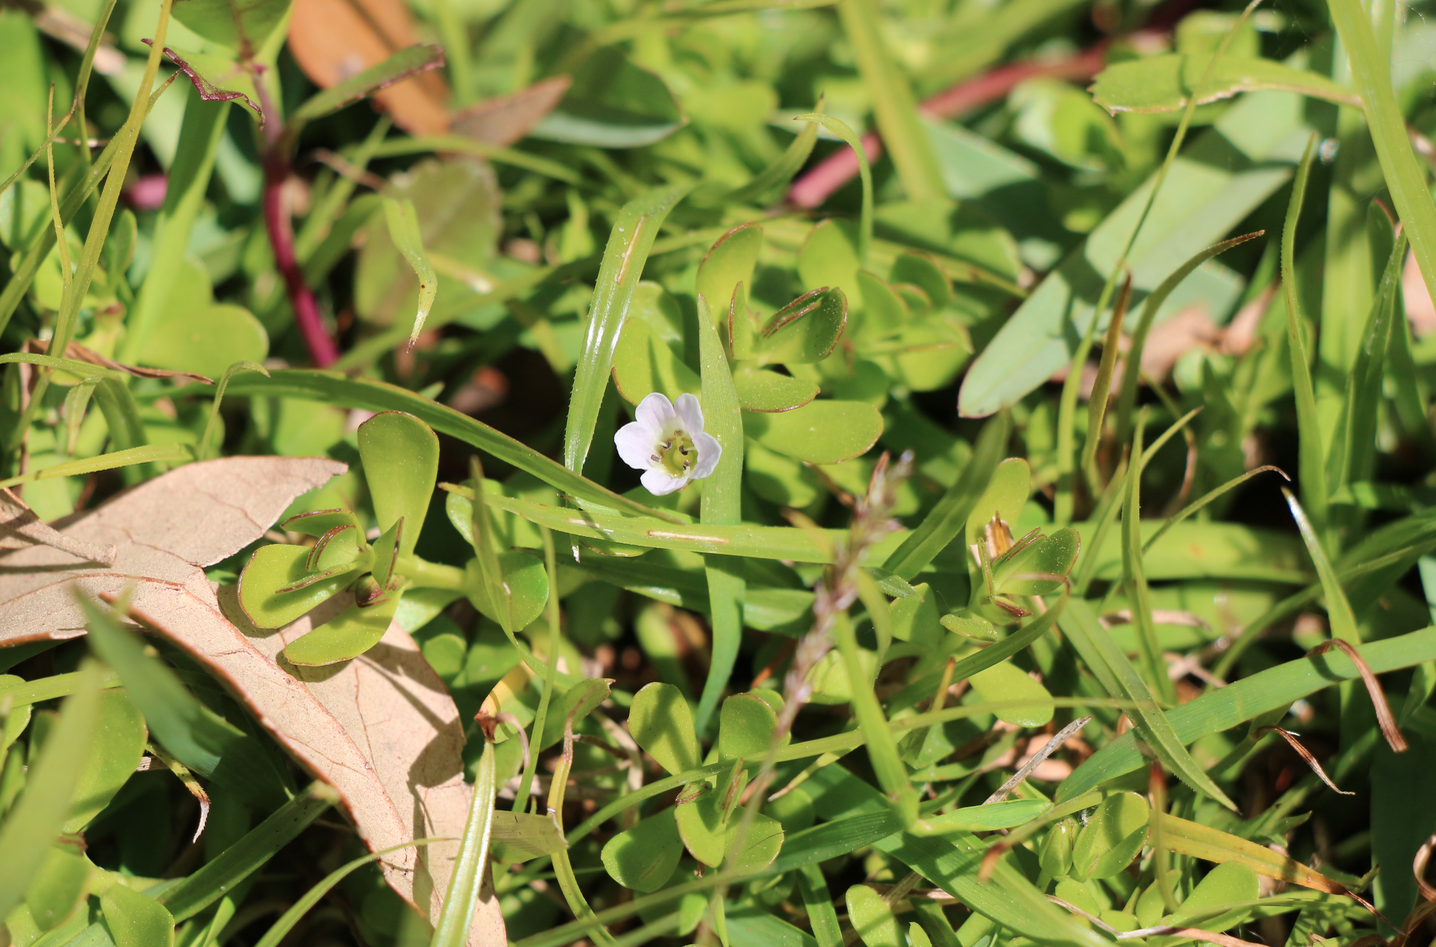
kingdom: Plantae
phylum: Tracheophyta
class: Magnoliopsida
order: Lamiales
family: Plantaginaceae
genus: Bacopa
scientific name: Bacopa monnieri
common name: Indian-pennywort
